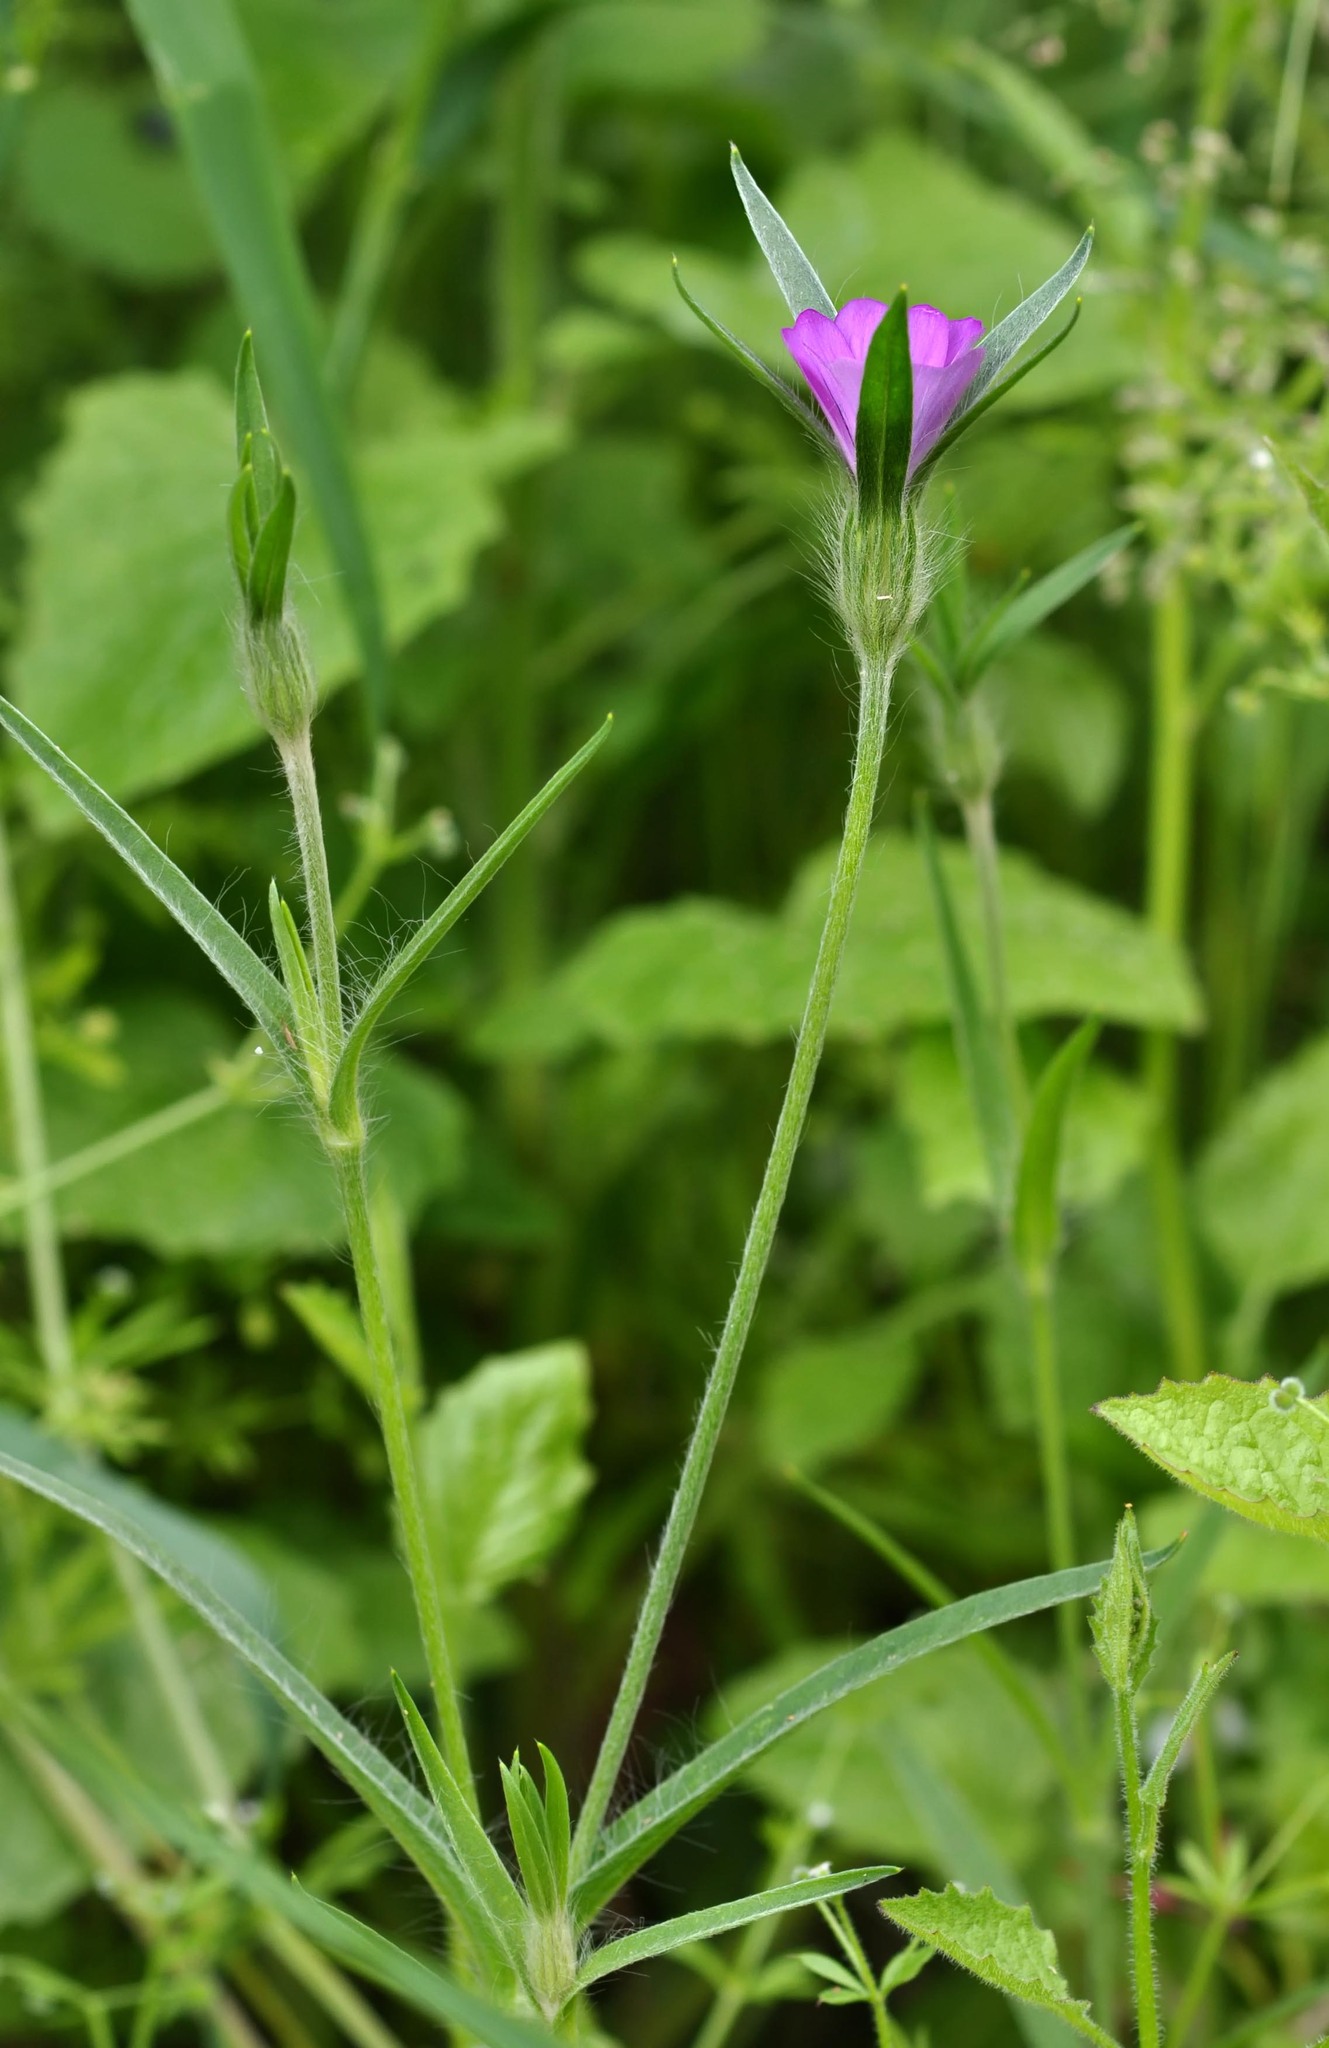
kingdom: Plantae
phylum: Tracheophyta
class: Magnoliopsida
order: Caryophyllales
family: Caryophyllaceae
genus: Agrostemma
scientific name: Agrostemma githago
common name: Common corncockle
